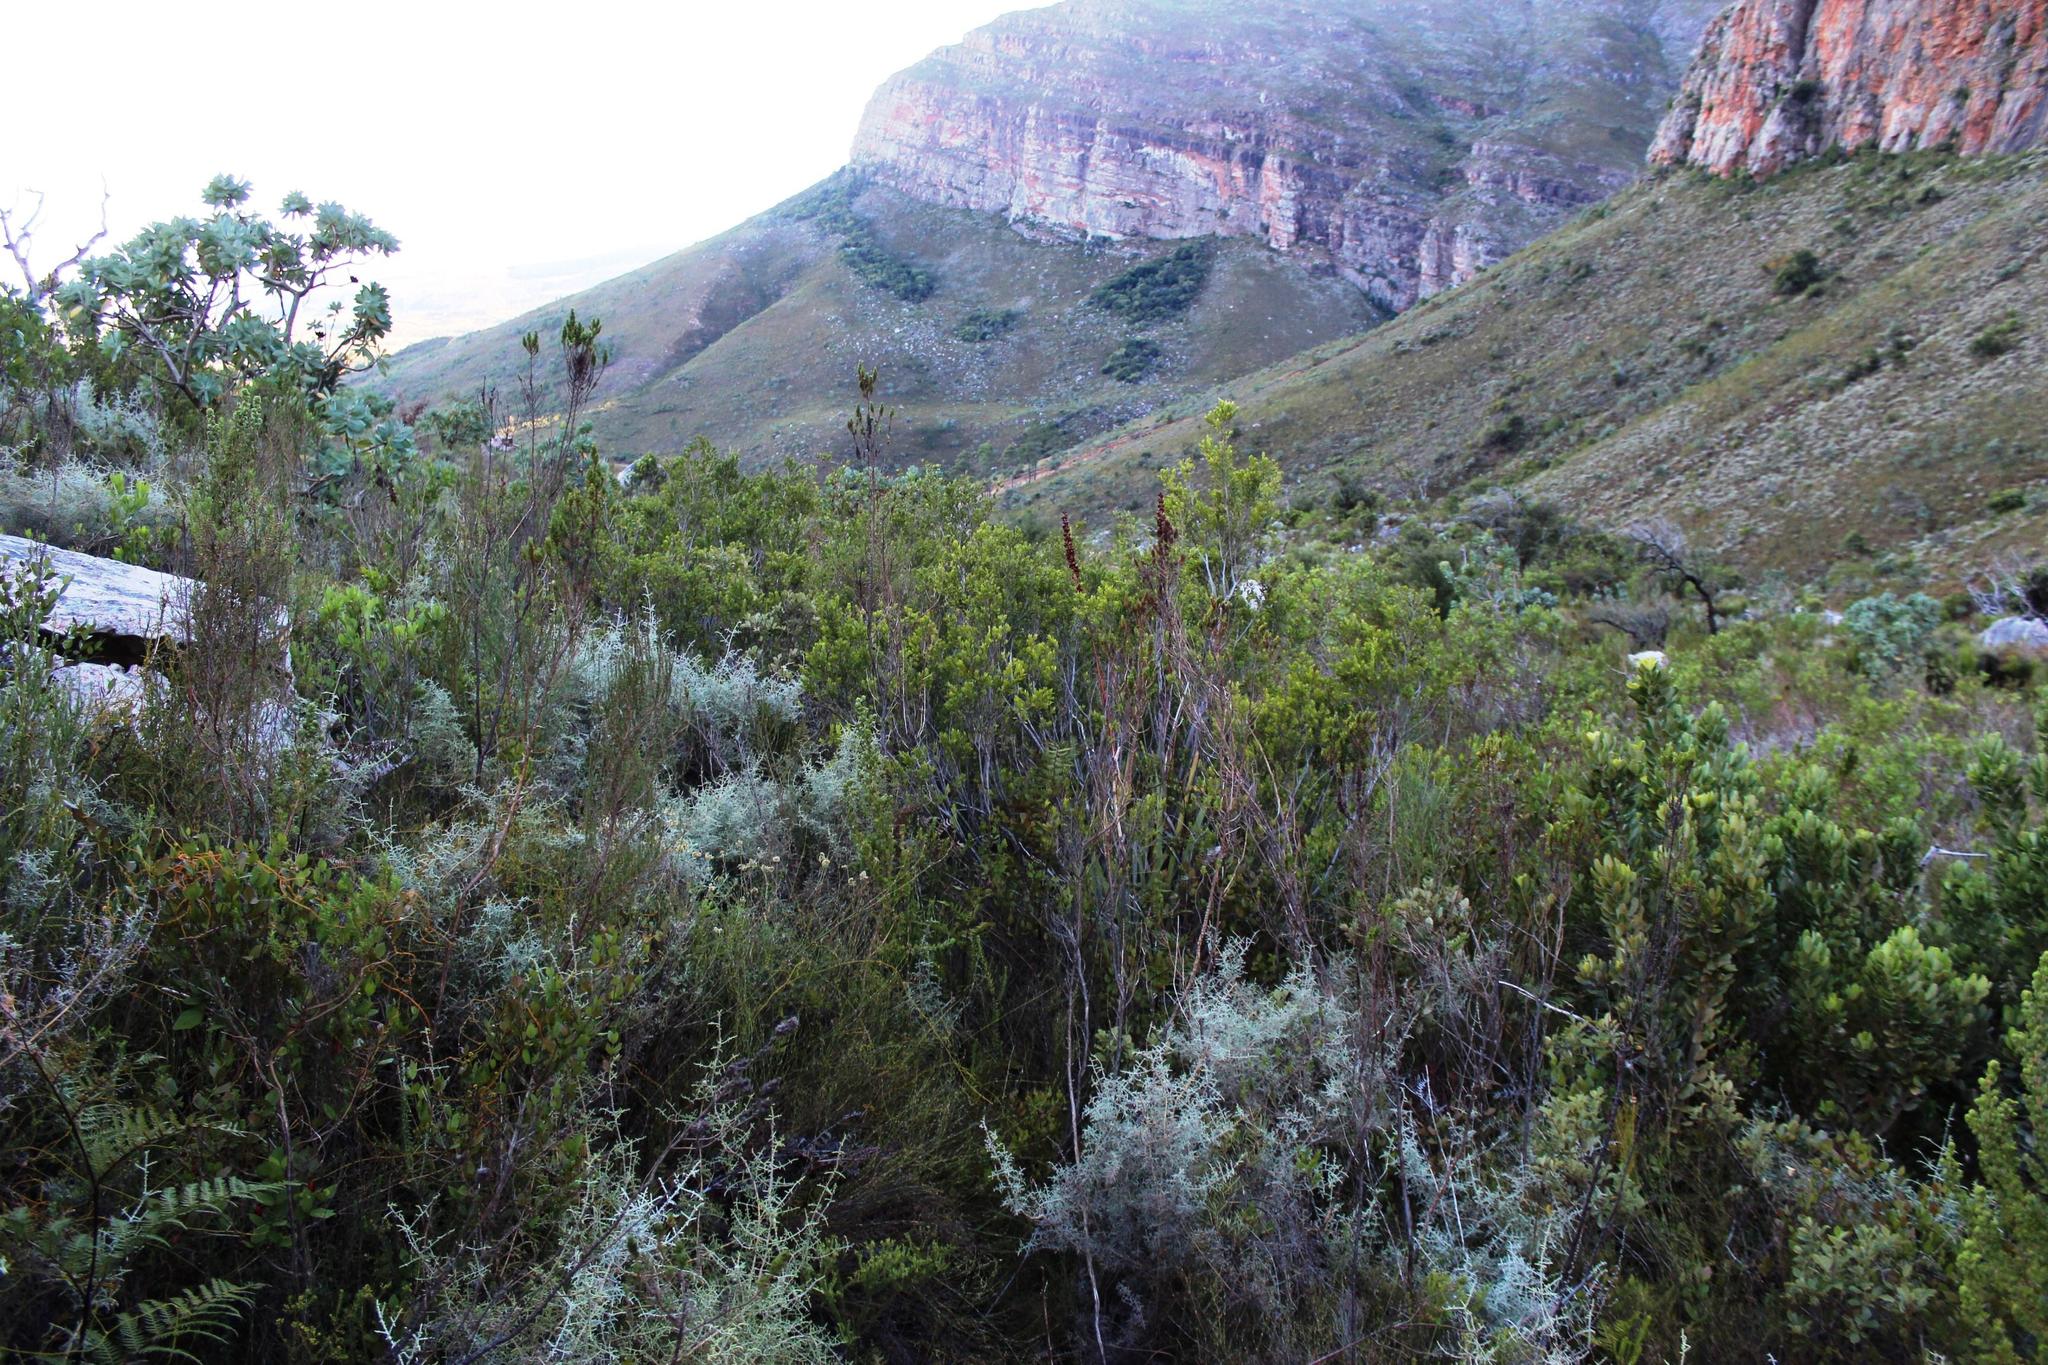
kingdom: Plantae
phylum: Tracheophyta
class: Magnoliopsida
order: Lamiales
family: Stilbaceae
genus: Halleria
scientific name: Halleria elliptica
